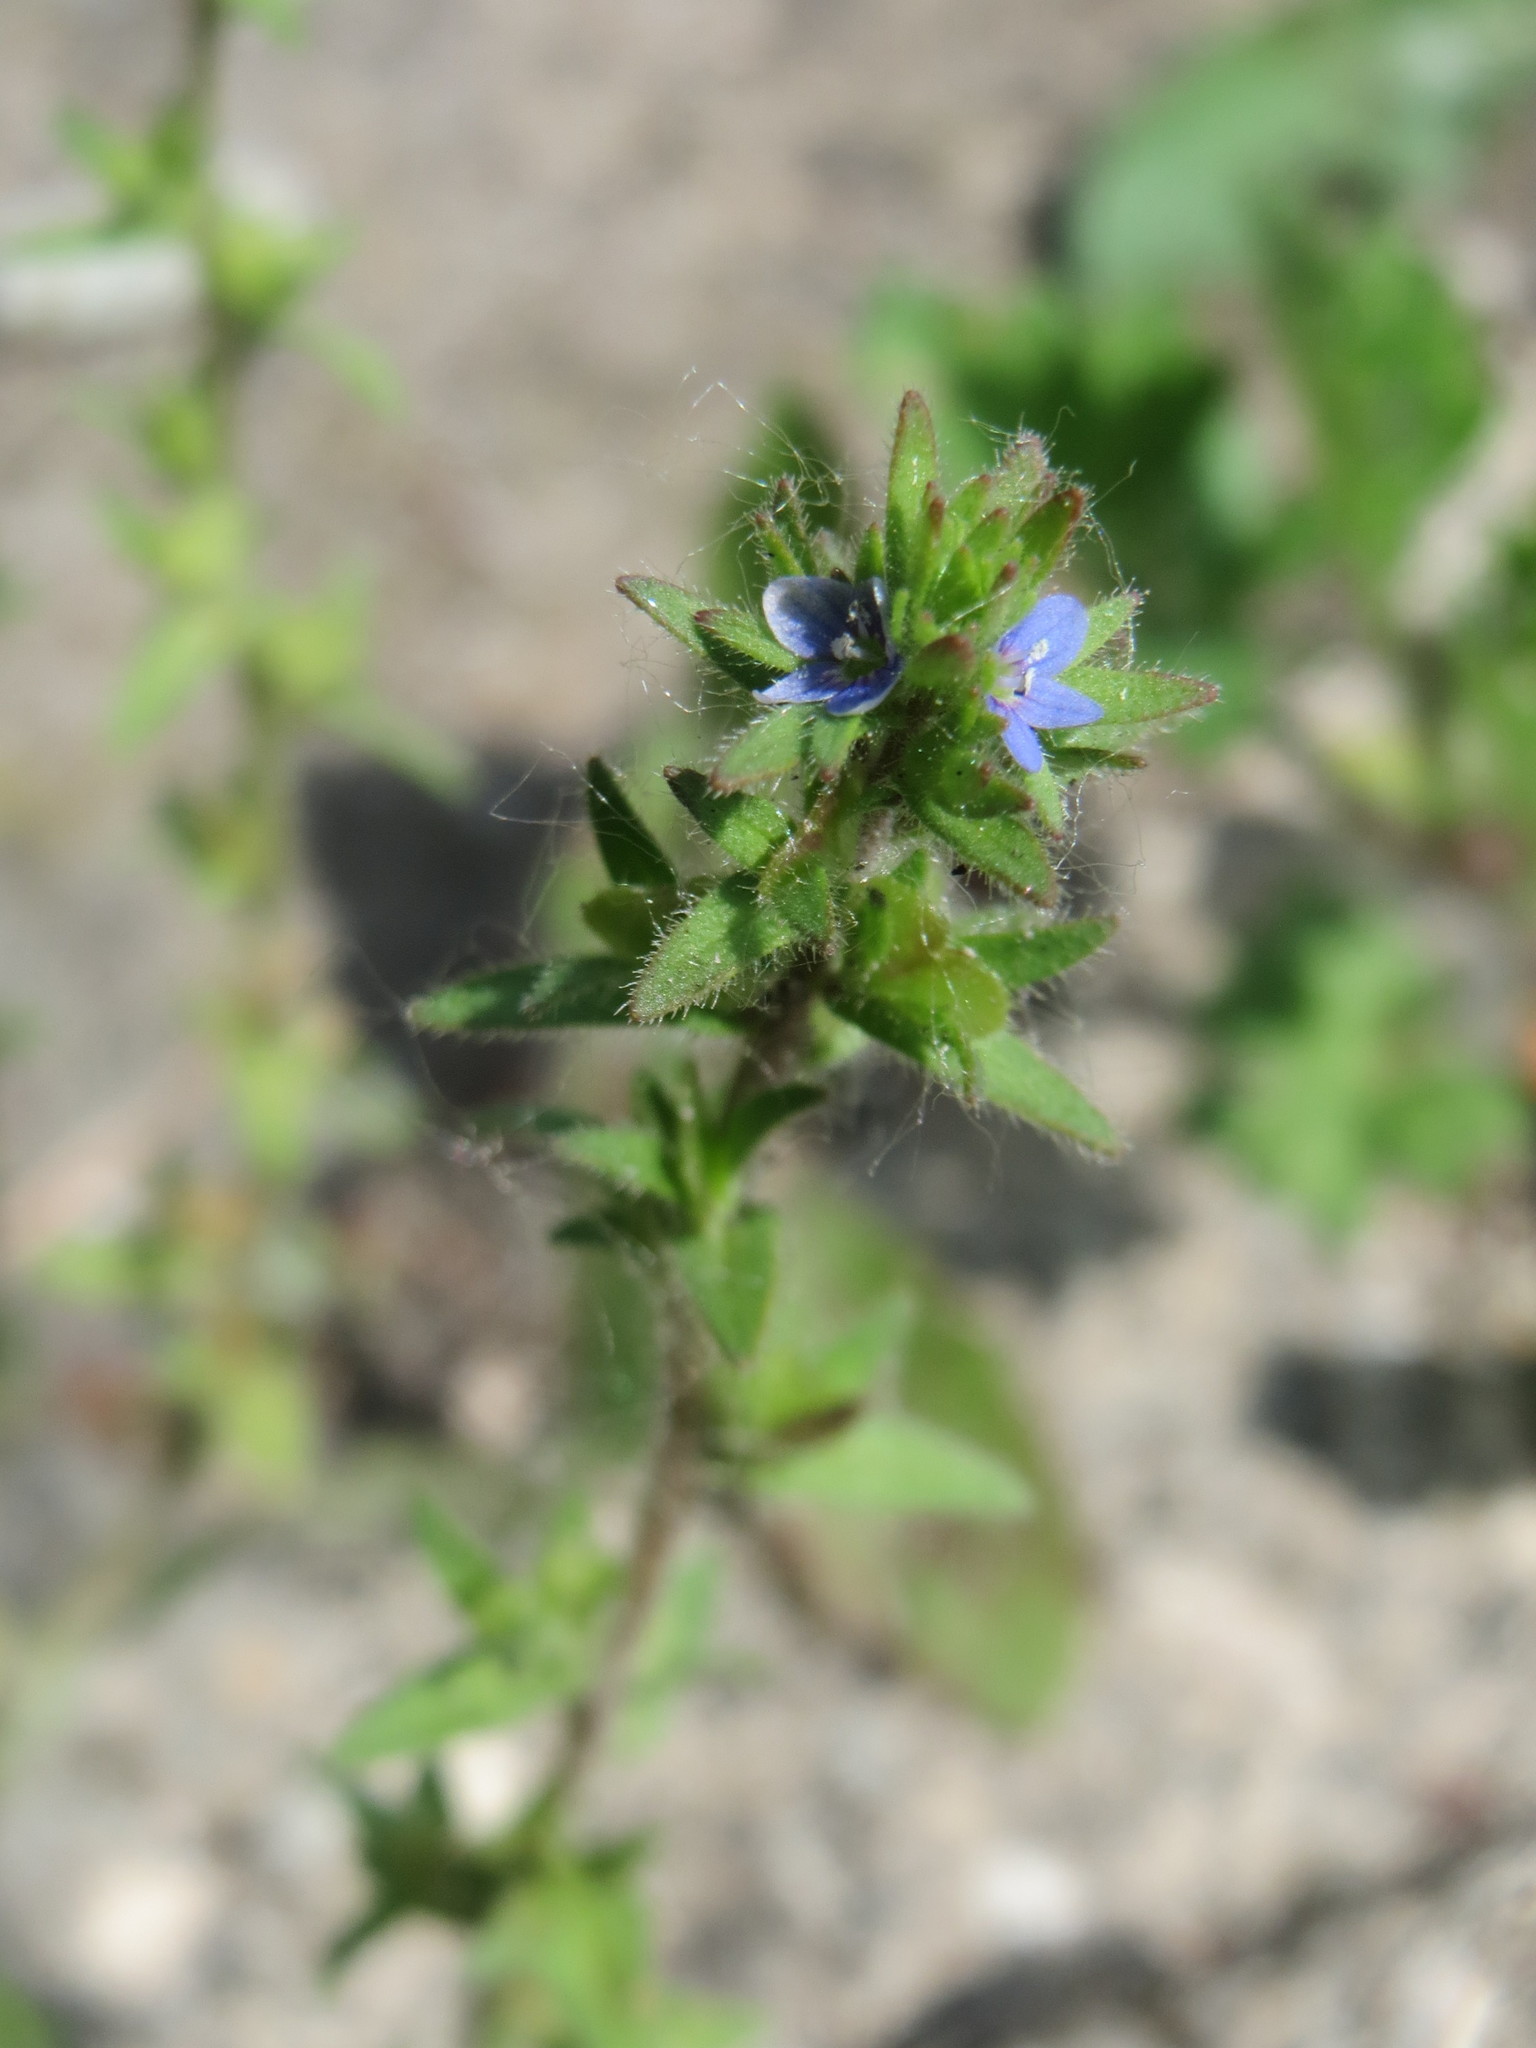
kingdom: Plantae
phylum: Tracheophyta
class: Magnoliopsida
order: Lamiales
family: Plantaginaceae
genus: Veronica
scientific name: Veronica arvensis
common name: Corn speedwell
